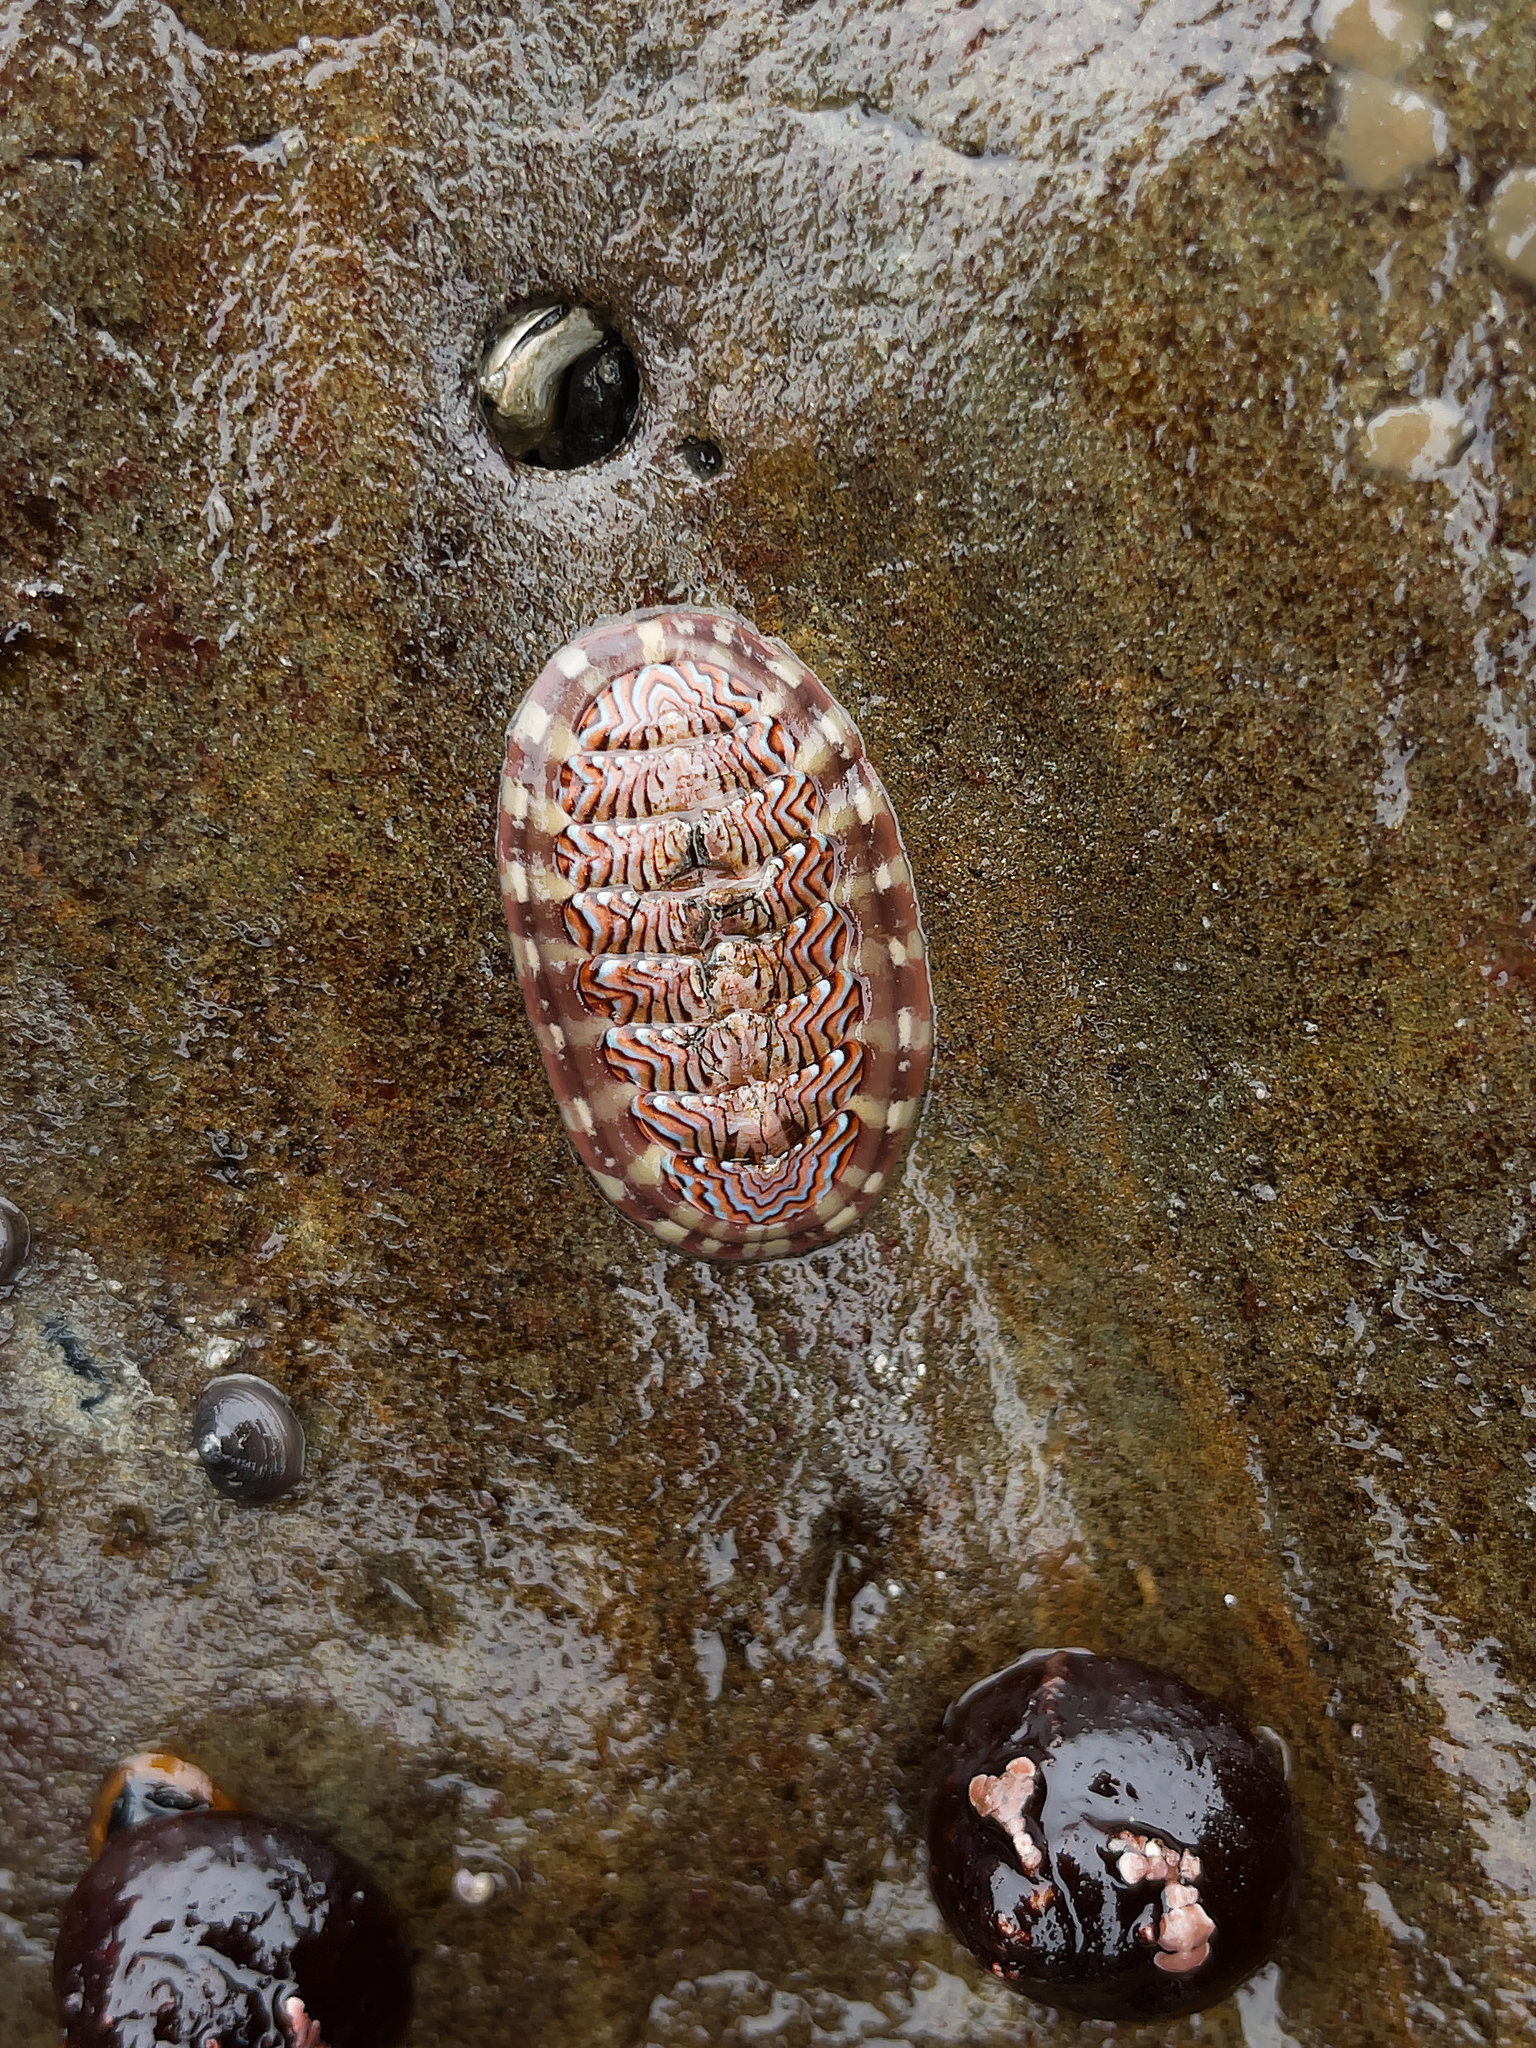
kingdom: Animalia
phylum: Mollusca
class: Polyplacophora
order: Chitonida
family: Tonicellidae
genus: Tonicella
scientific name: Tonicella lokii
